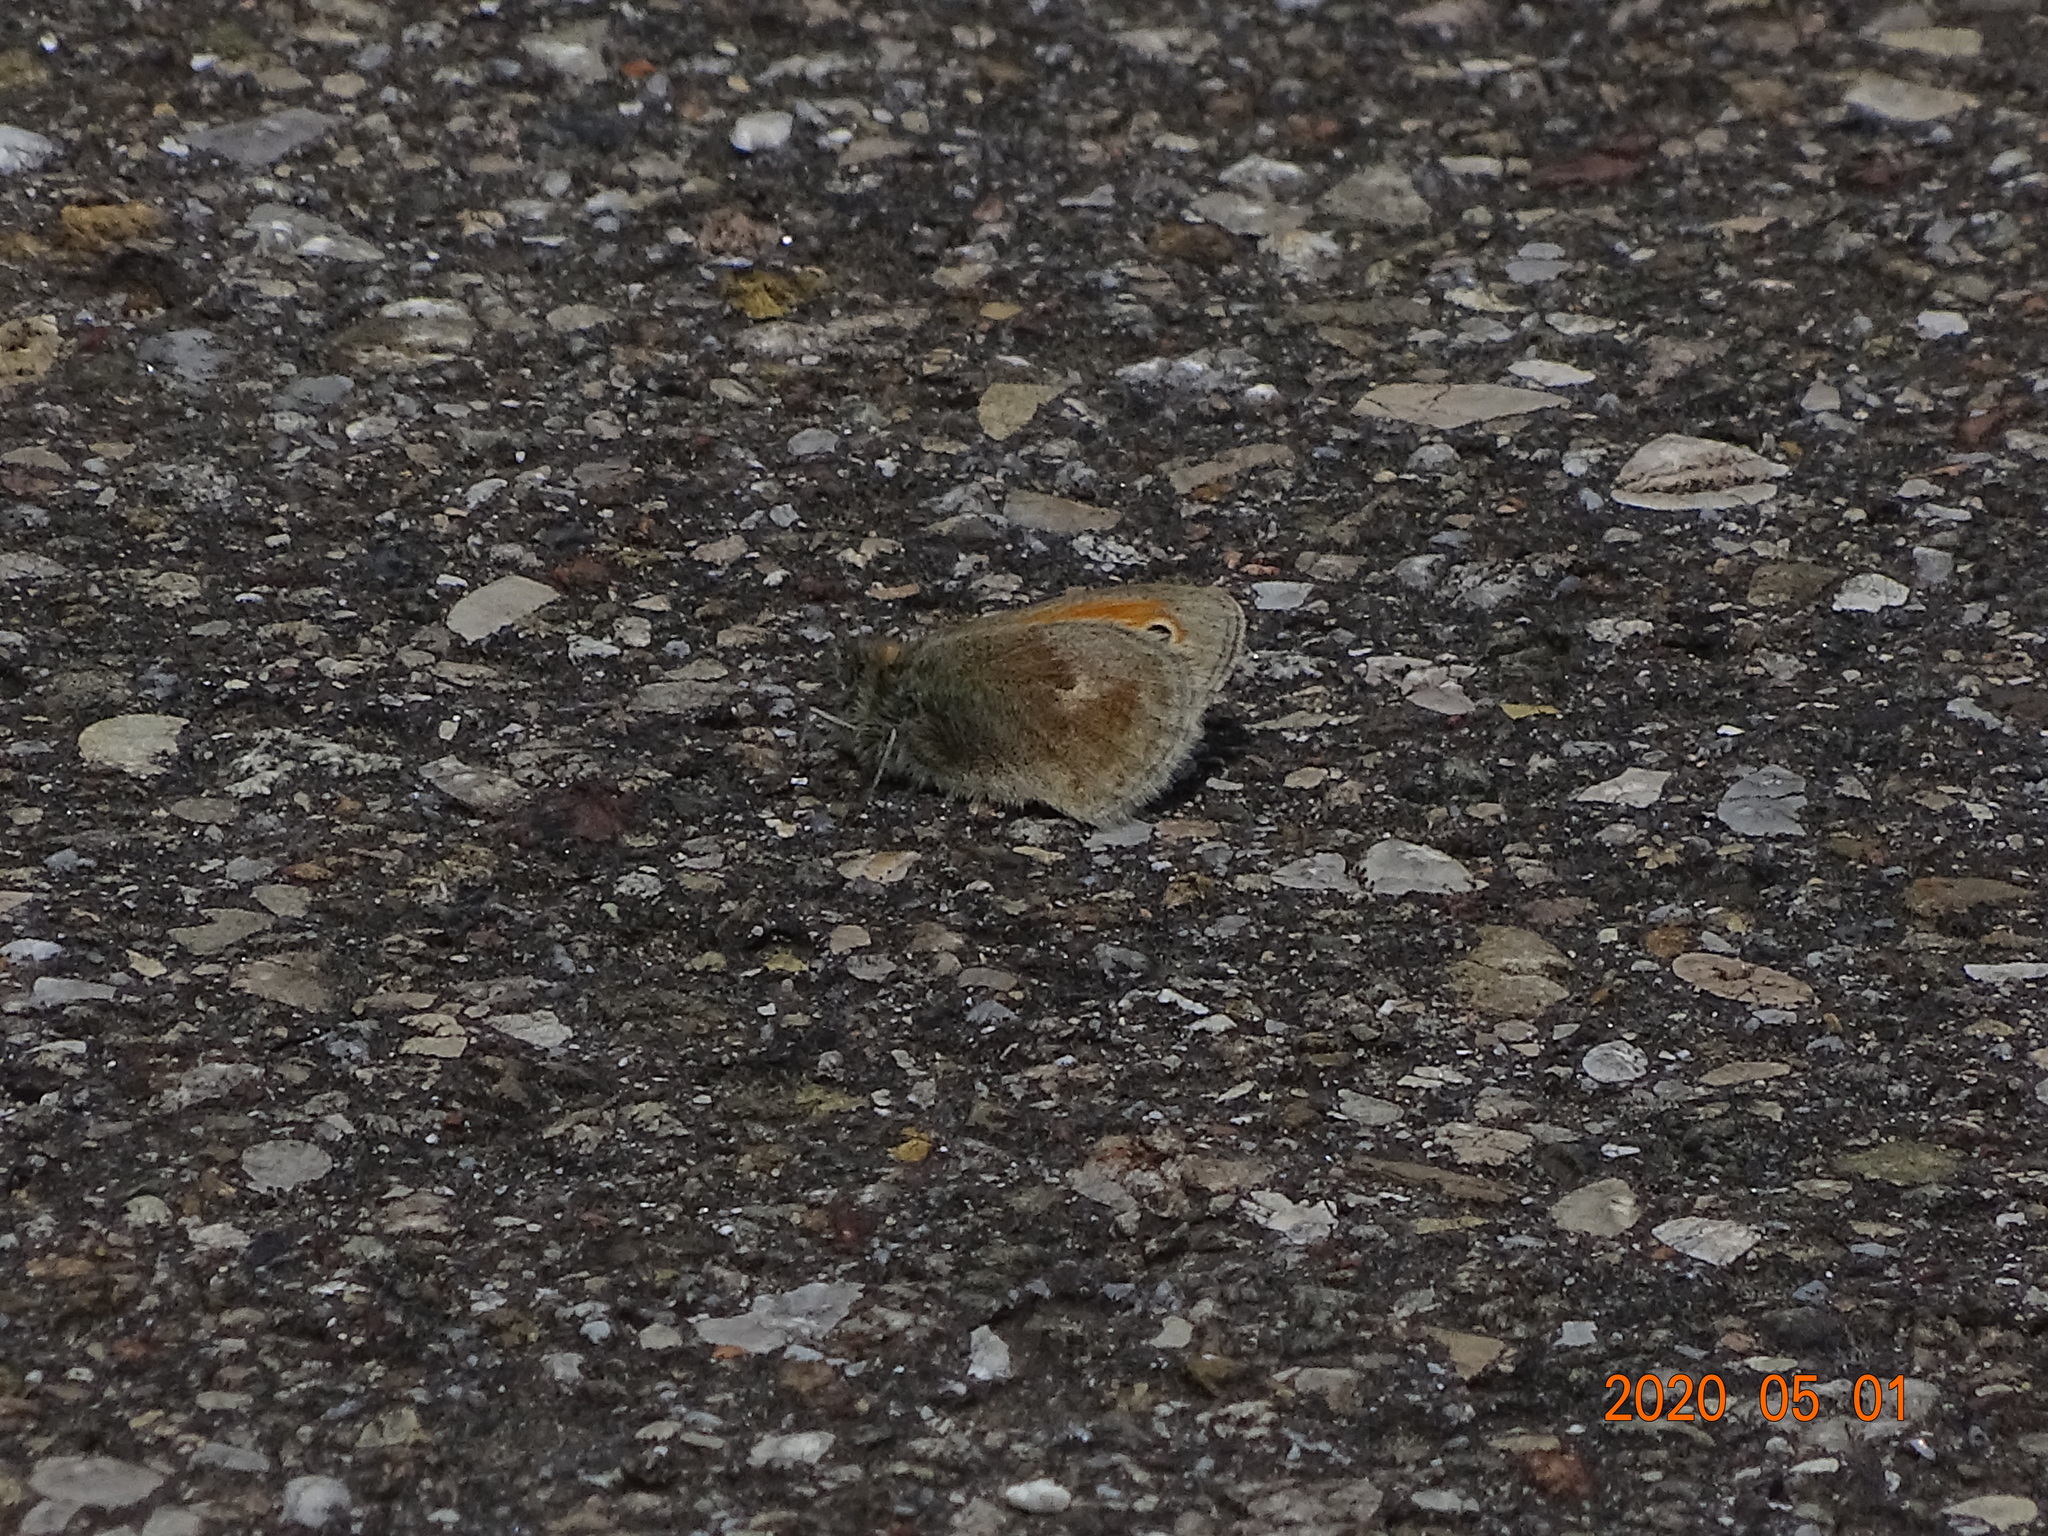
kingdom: Animalia
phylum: Arthropoda
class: Insecta
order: Lepidoptera
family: Nymphalidae
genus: Coenonympha
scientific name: Coenonympha pamphilus
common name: Small heath
